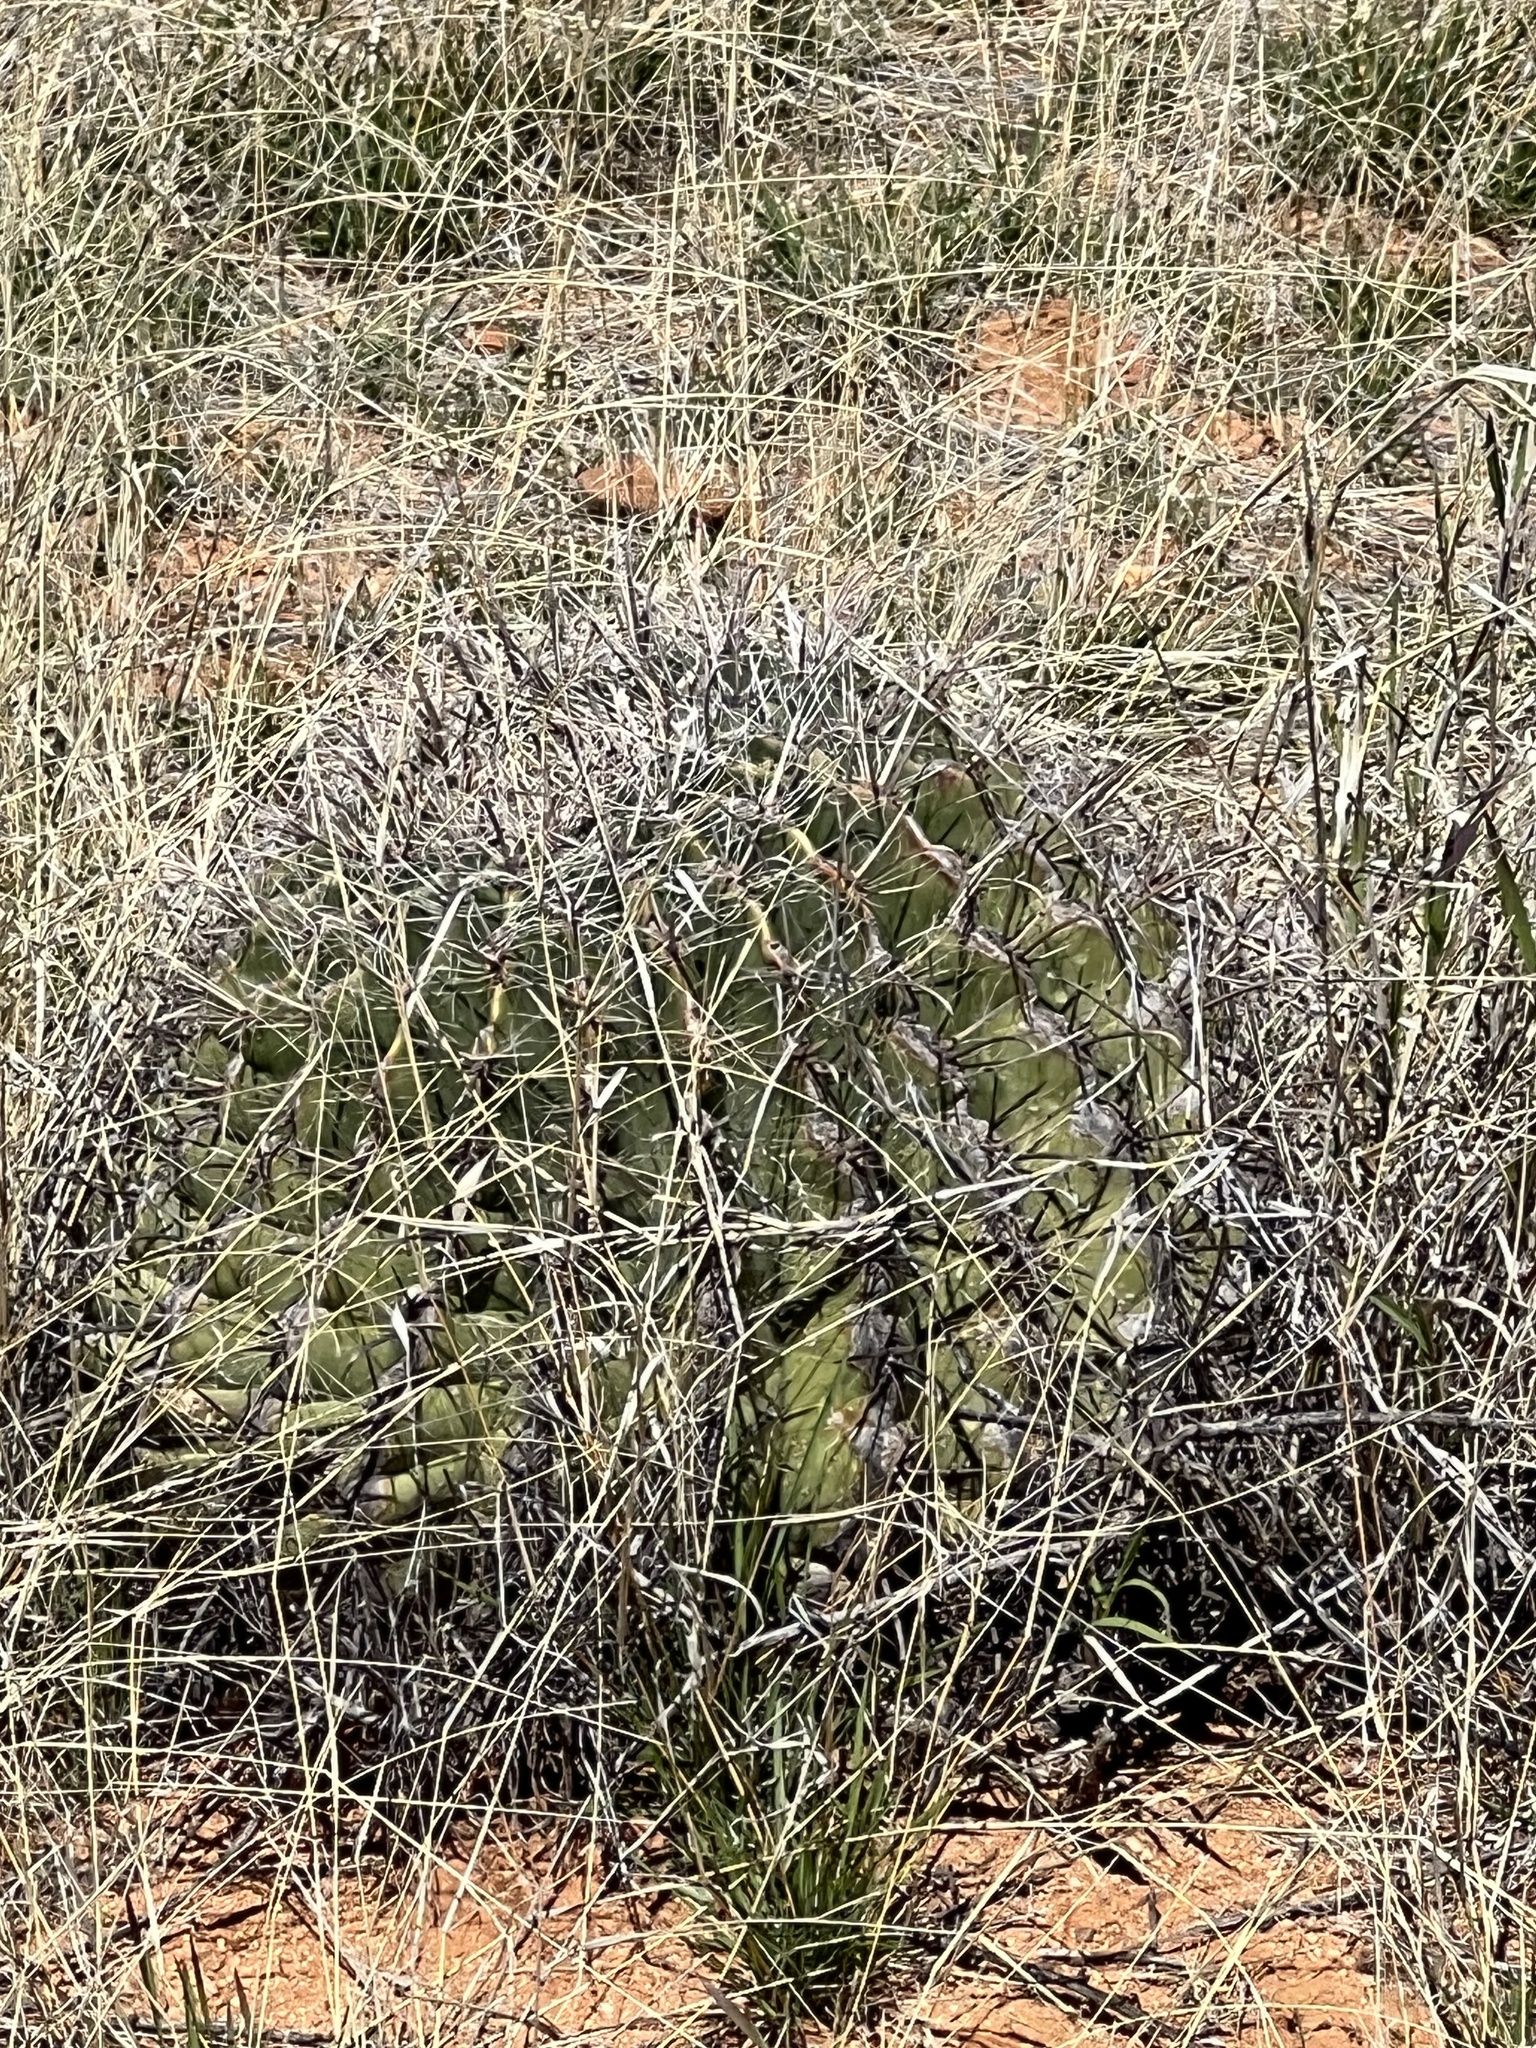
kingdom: Plantae
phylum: Tracheophyta
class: Magnoliopsida
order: Caryophyllales
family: Cactaceae
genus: Ferocactus
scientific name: Ferocactus wislizeni
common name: Candy barrel cactus
